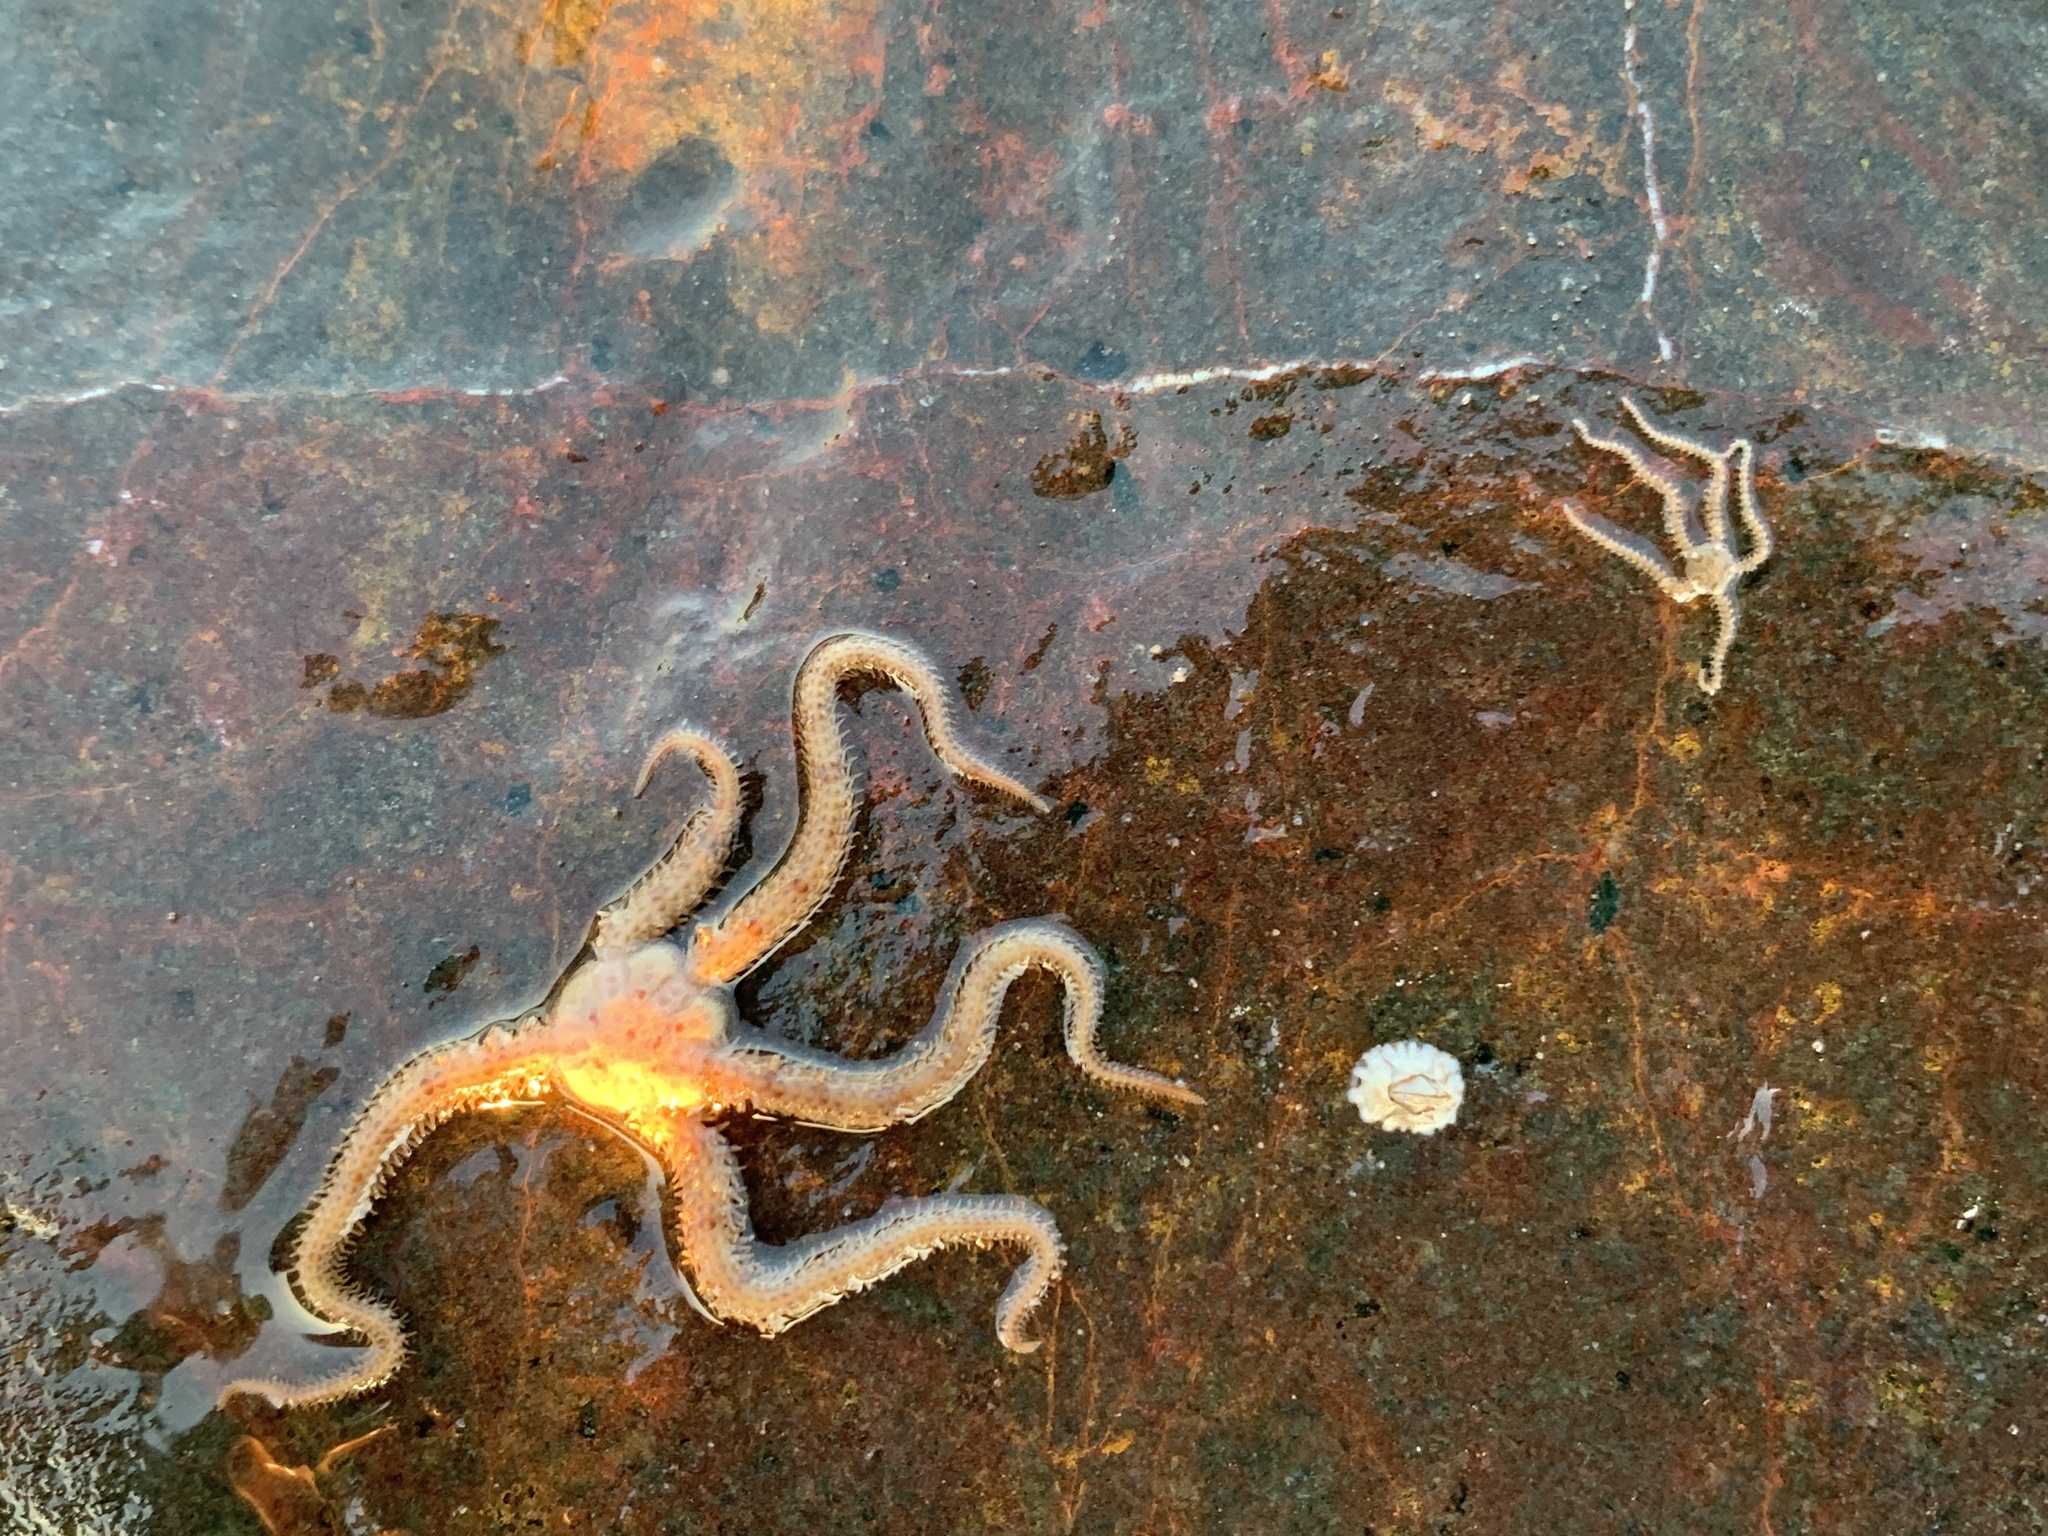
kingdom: Animalia
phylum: Echinodermata
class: Ophiuroidea
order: Amphilepidida
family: Ophiopholidae
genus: Ophiopholis
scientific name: Ophiopholis aculeata
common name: Crevice brittlestar
